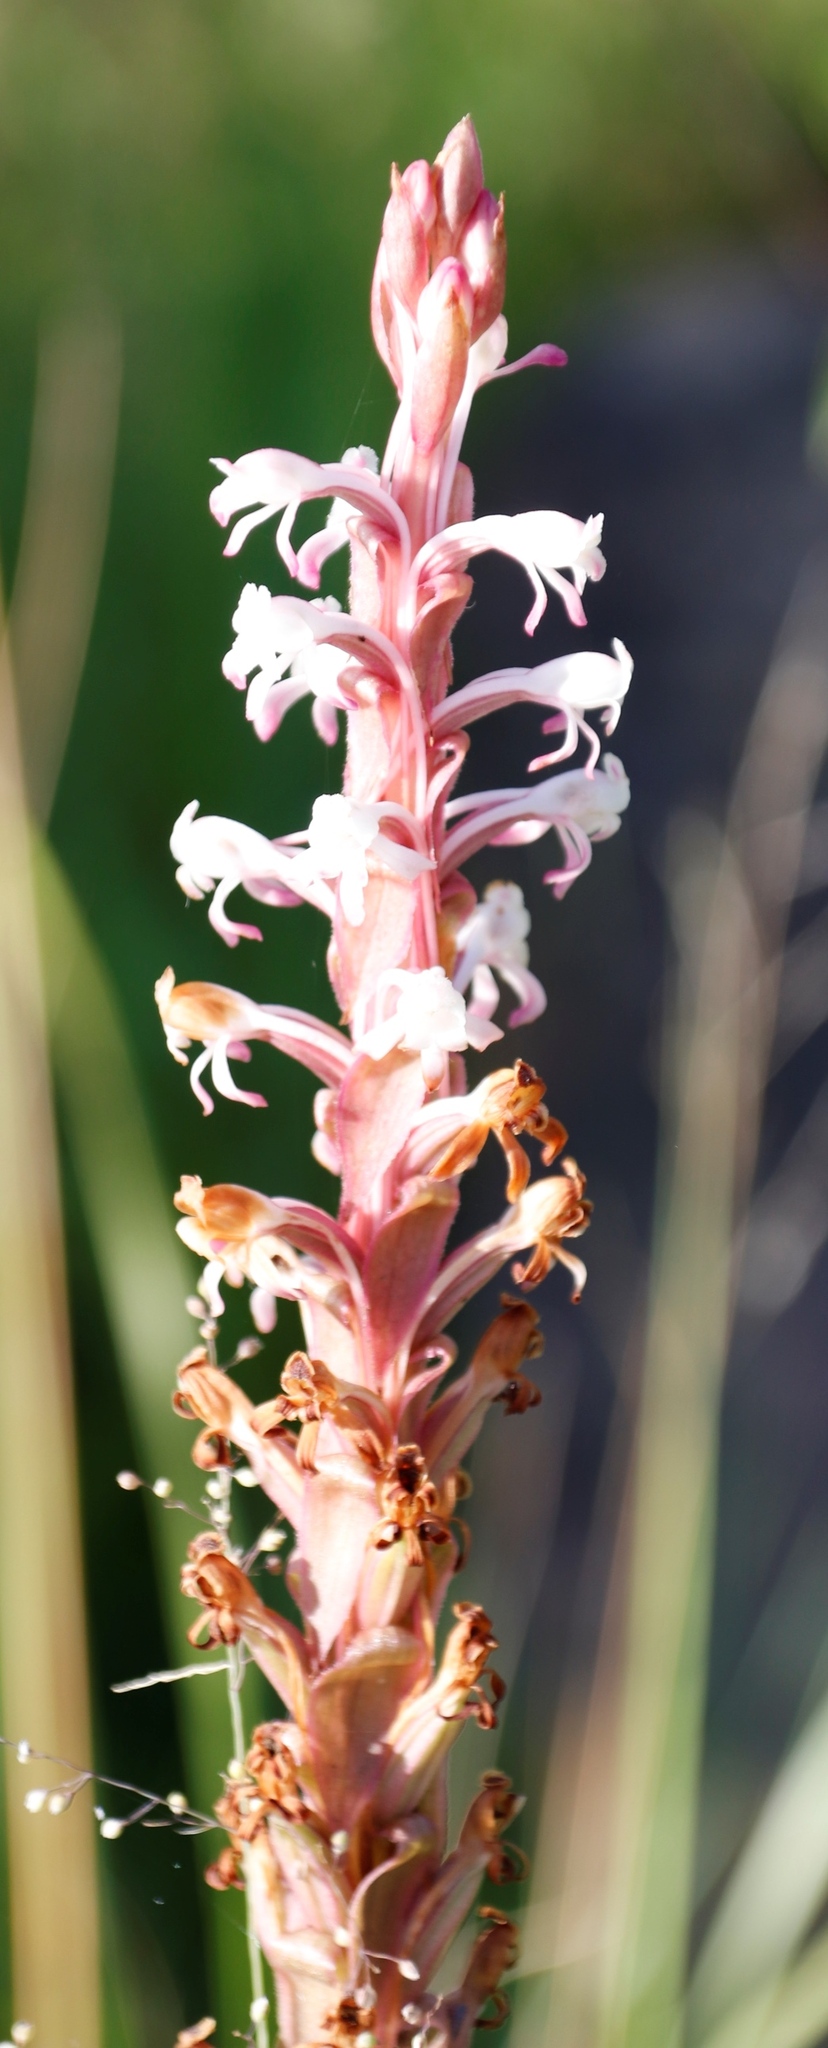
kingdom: Plantae
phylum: Tracheophyta
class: Liliopsida
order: Asparagales
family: Orchidaceae
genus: Satyrium
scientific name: Satyrium longicauda
